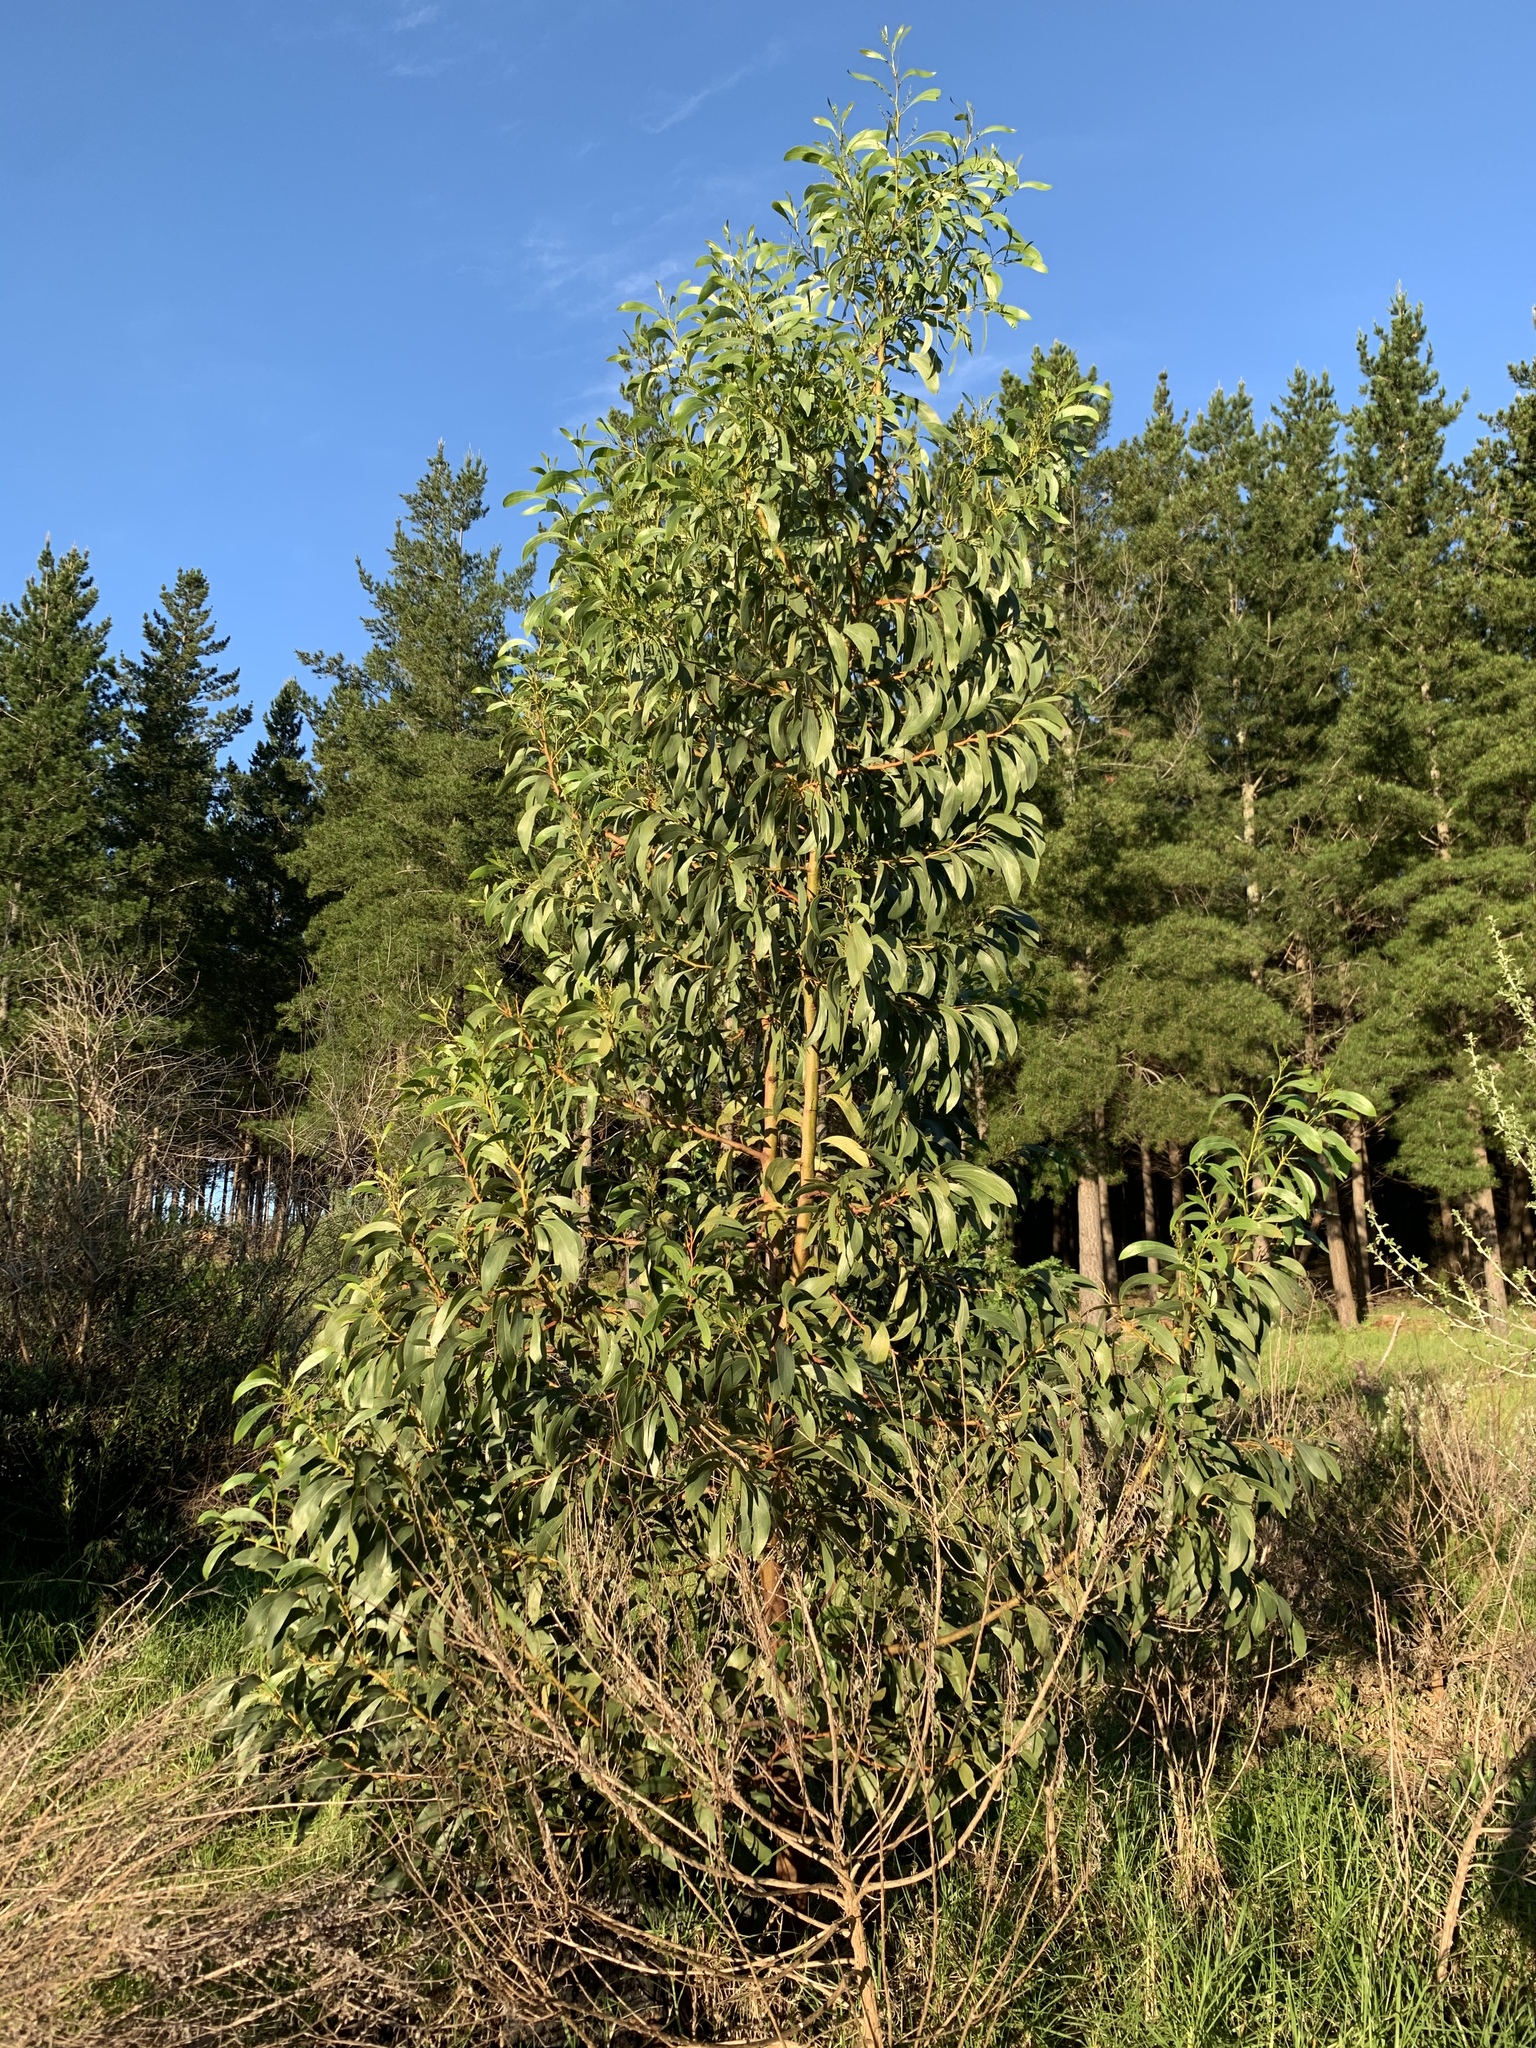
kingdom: Plantae
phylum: Tracheophyta
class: Magnoliopsida
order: Fabales
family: Fabaceae
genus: Acacia
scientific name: Acacia pycnantha
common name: Golden wattle
